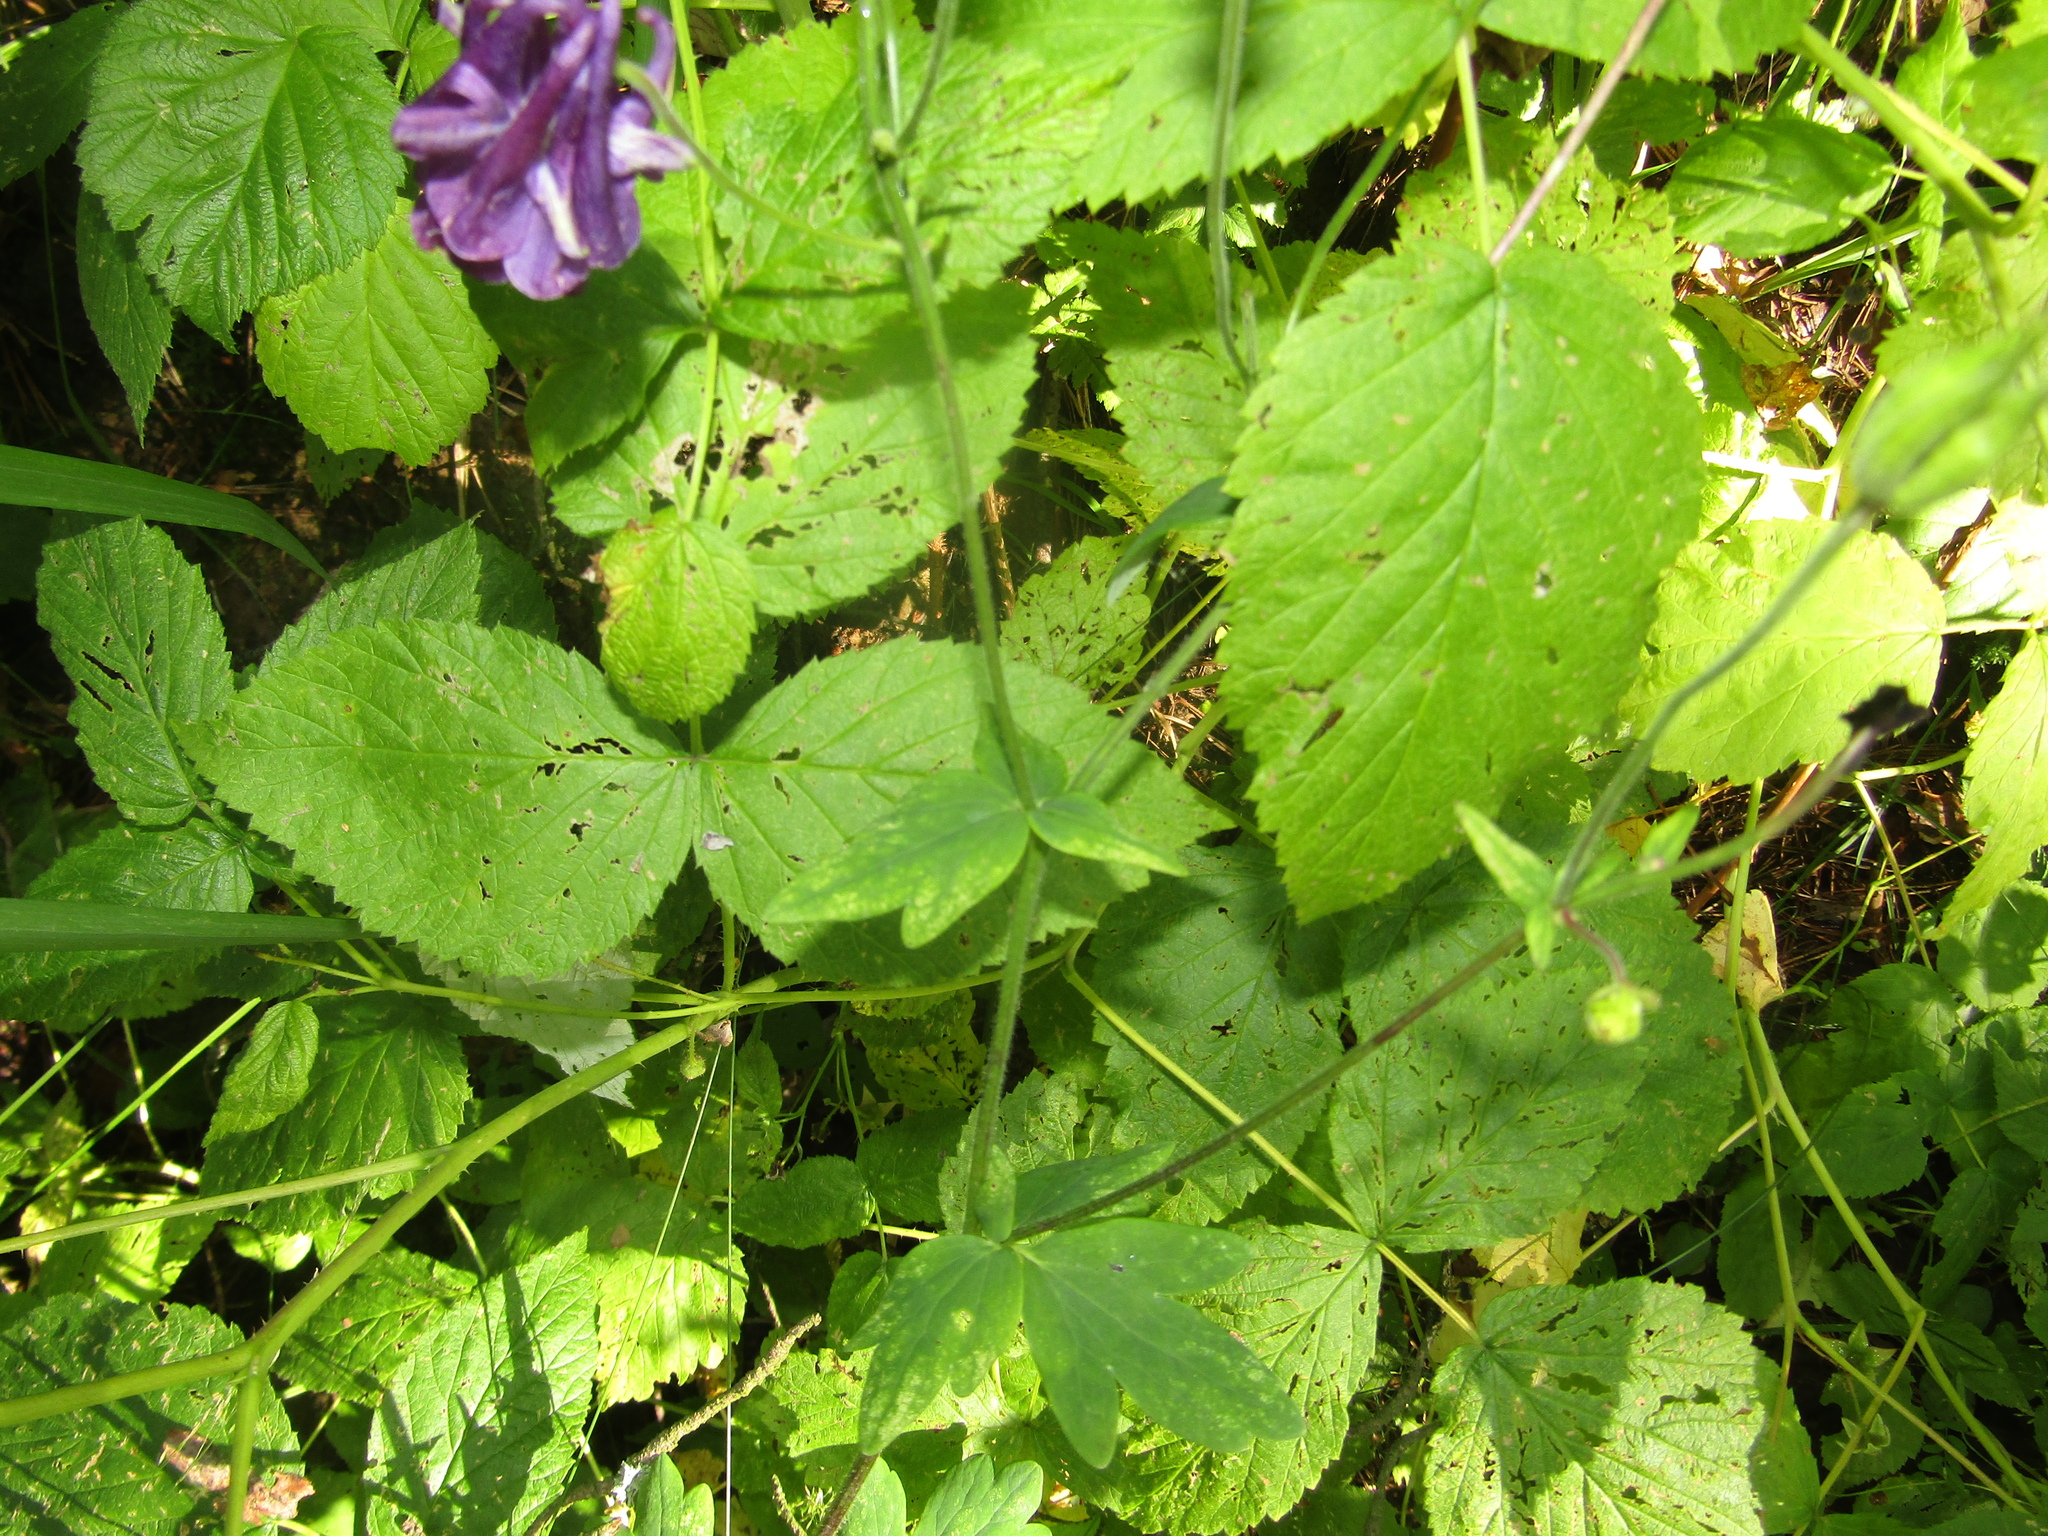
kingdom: Plantae
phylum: Tracheophyta
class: Magnoliopsida
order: Ranunculales
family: Ranunculaceae
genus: Aquilegia
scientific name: Aquilegia vulgaris
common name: Columbine
